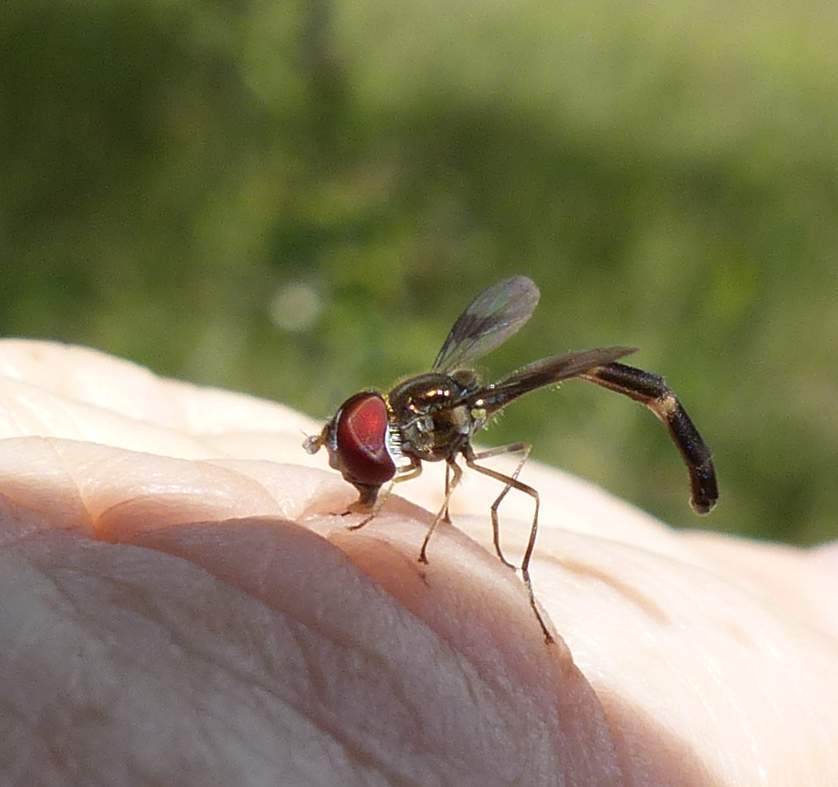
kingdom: Animalia
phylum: Arthropoda
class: Insecta
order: Diptera
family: Syrphidae
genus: Hypocritanus
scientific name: Hypocritanus fascipennis
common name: Eastern band-winged hover fly
